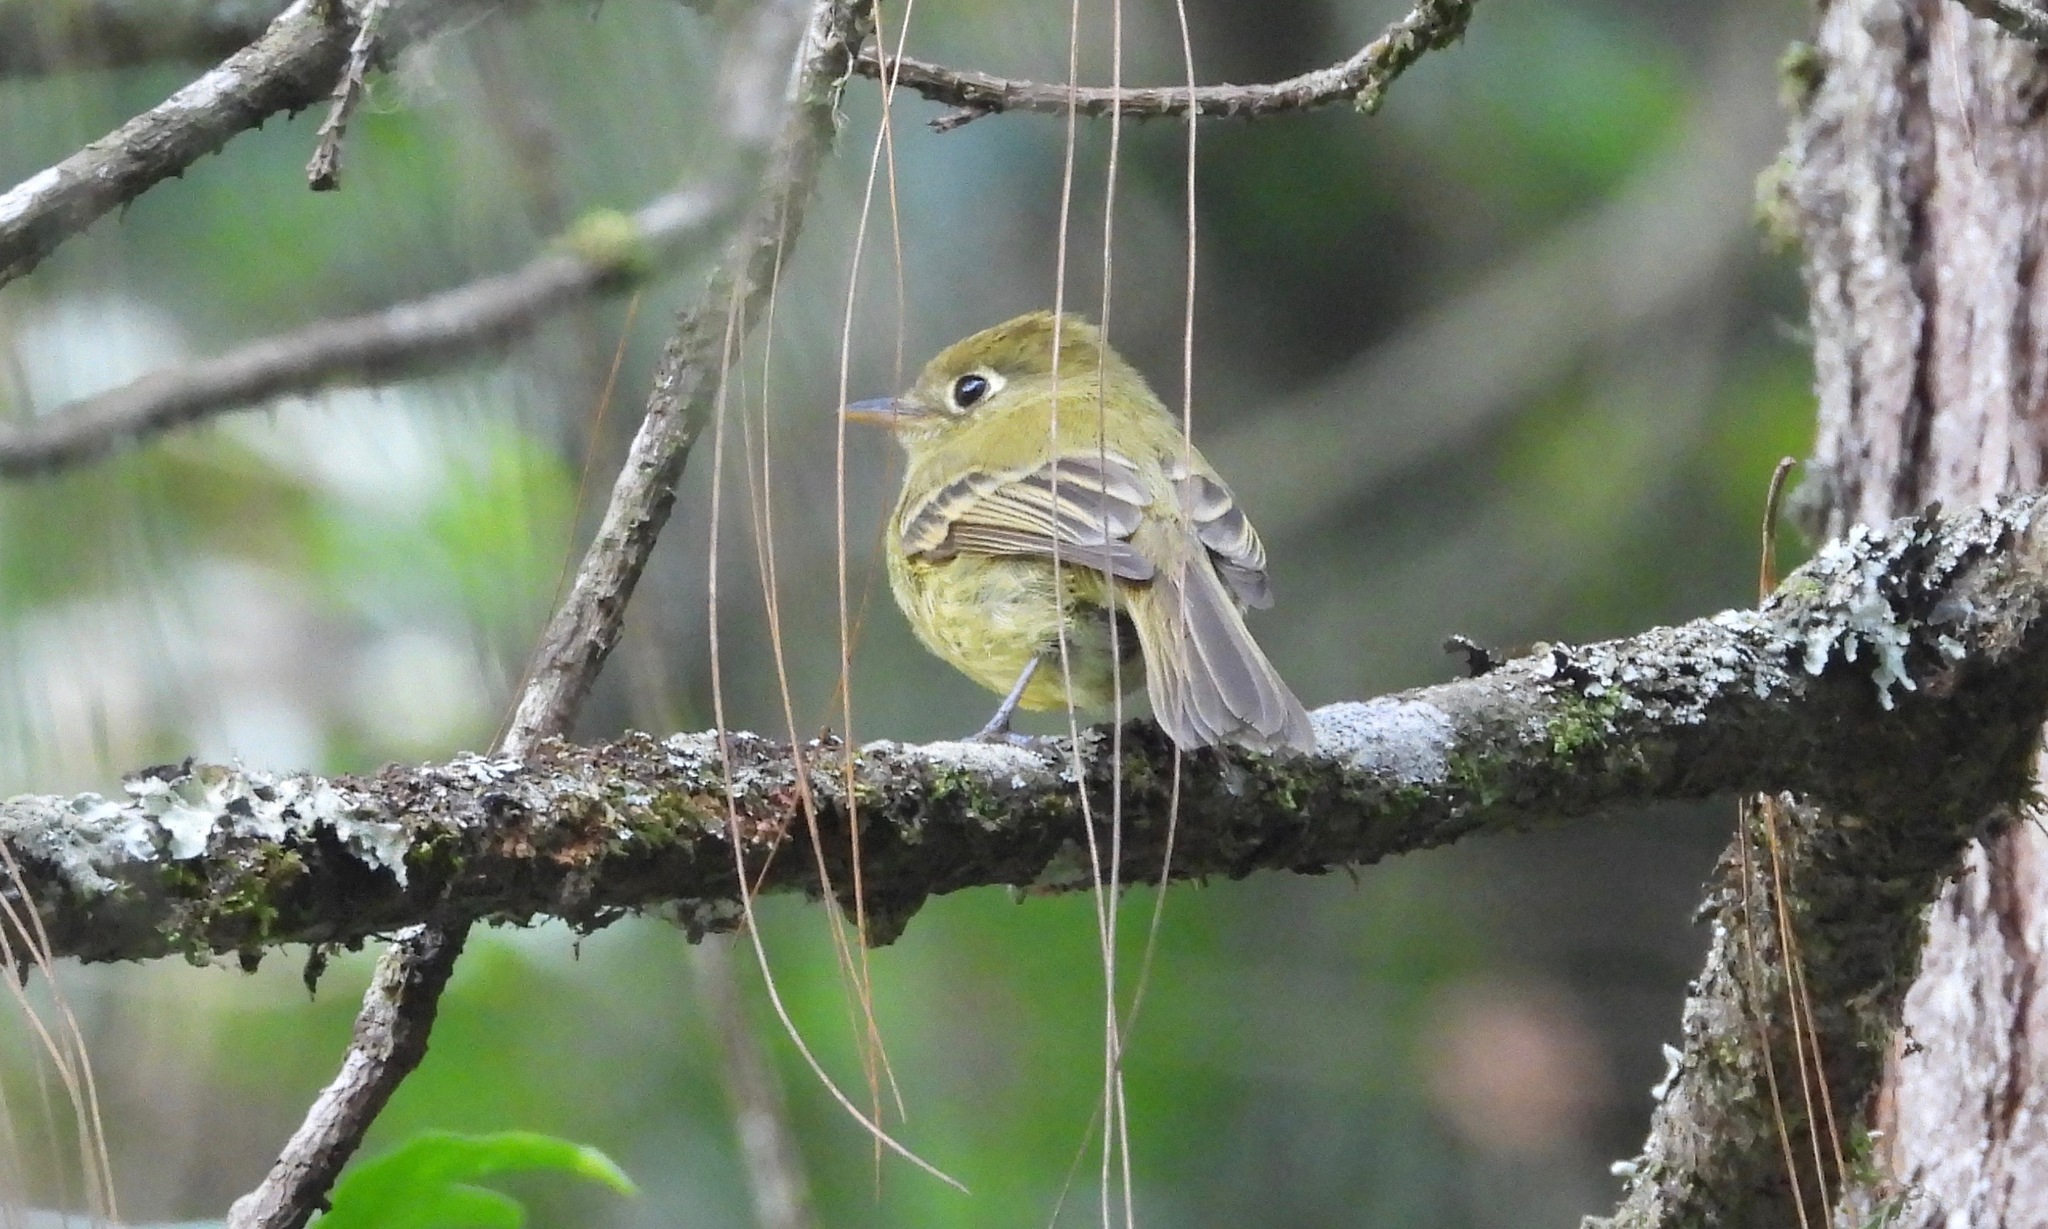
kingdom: Animalia
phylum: Chordata
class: Aves
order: Passeriformes
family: Tyrannidae
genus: Empidonax
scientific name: Empidonax flavescens
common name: Yellowish flycatcher
